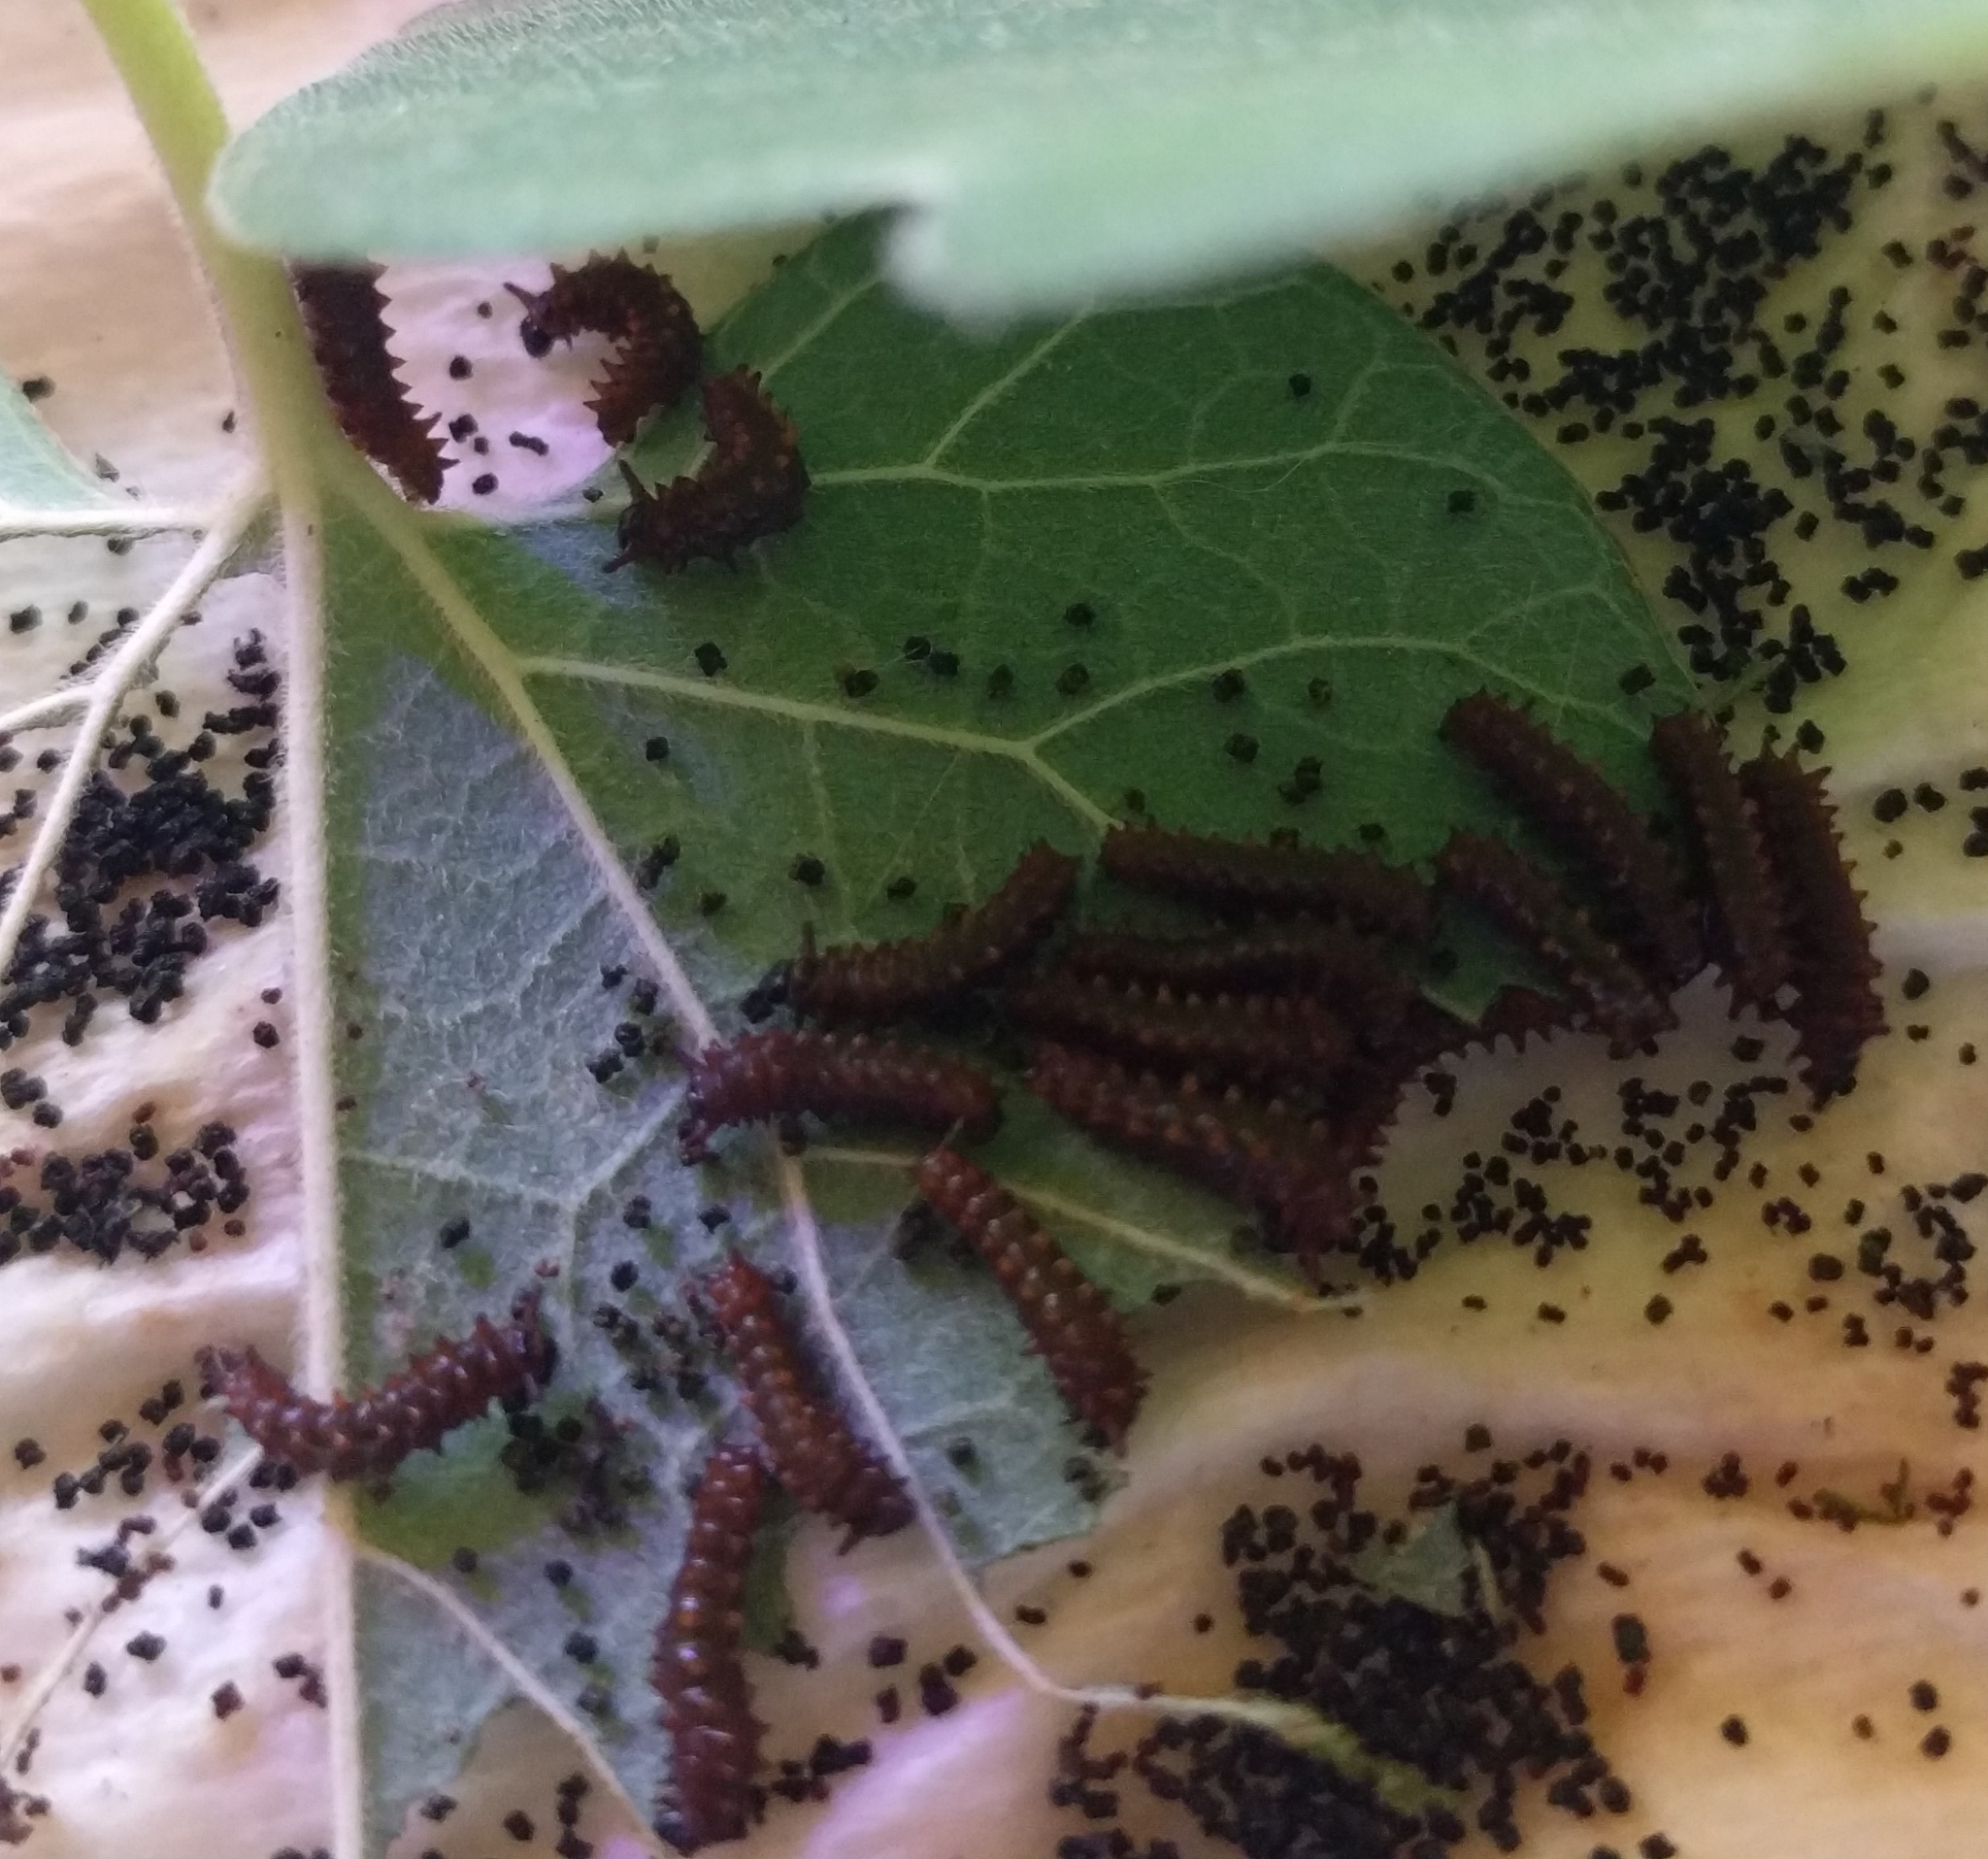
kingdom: Animalia
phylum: Arthropoda
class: Insecta
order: Lepidoptera
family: Papilionidae
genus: Battus
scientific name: Battus philenor
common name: Pipevine swallowtail
